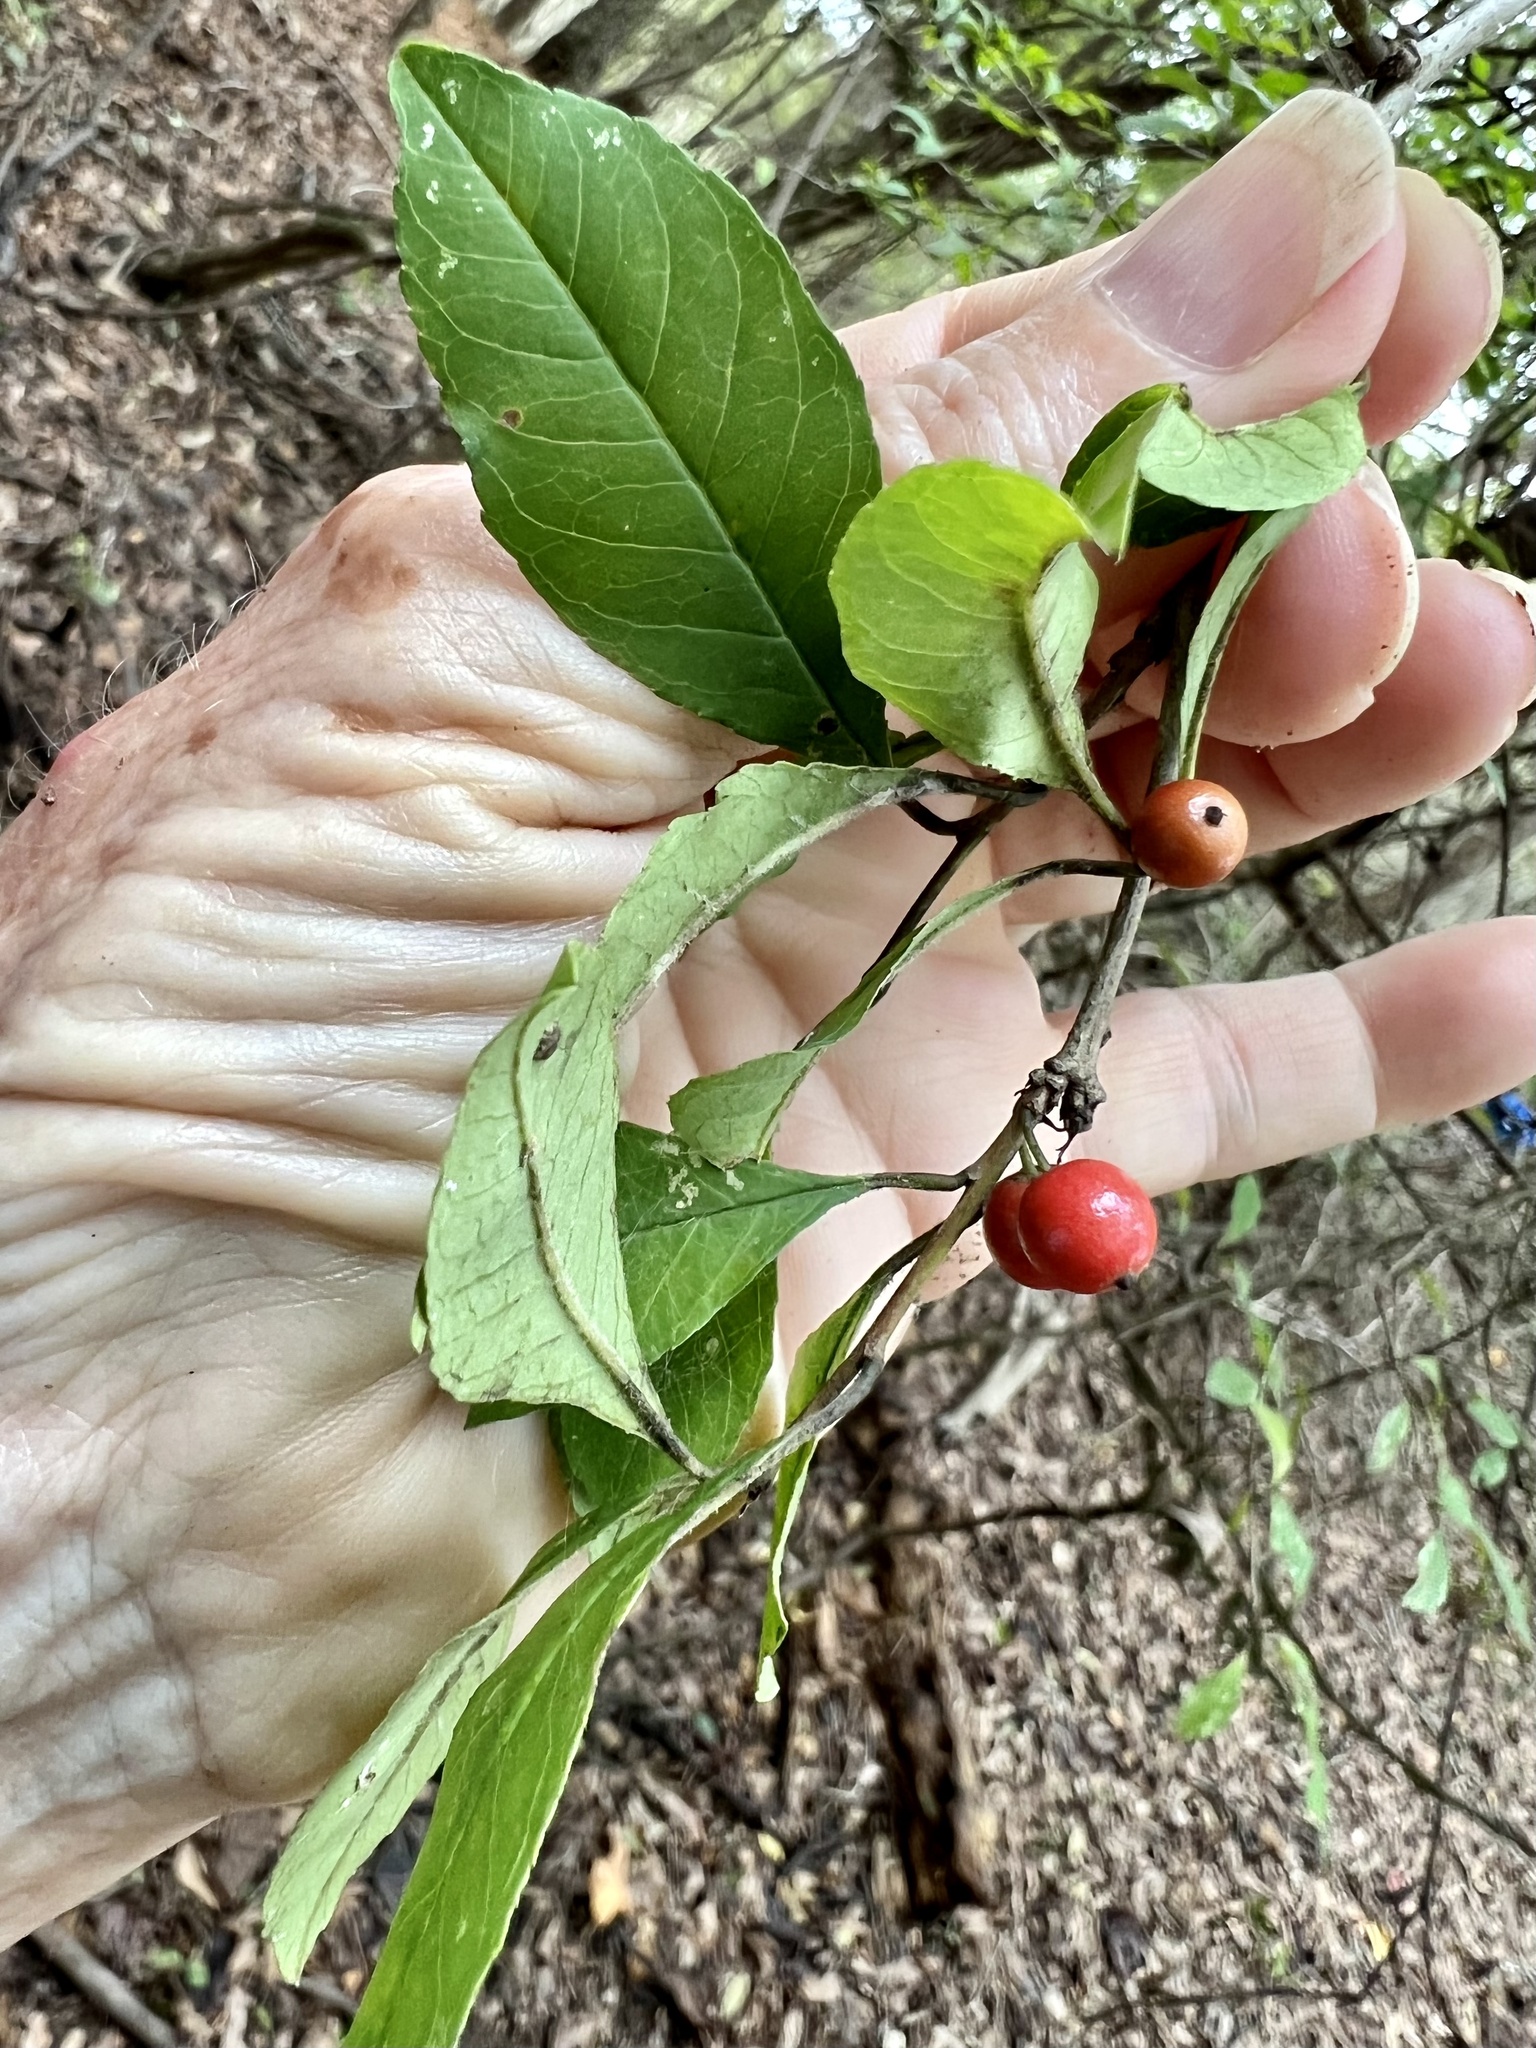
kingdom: Plantae
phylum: Tracheophyta
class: Magnoliopsida
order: Aquifoliales
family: Aquifoliaceae
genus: Ilex
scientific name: Ilex decidua
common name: Possum-haw
